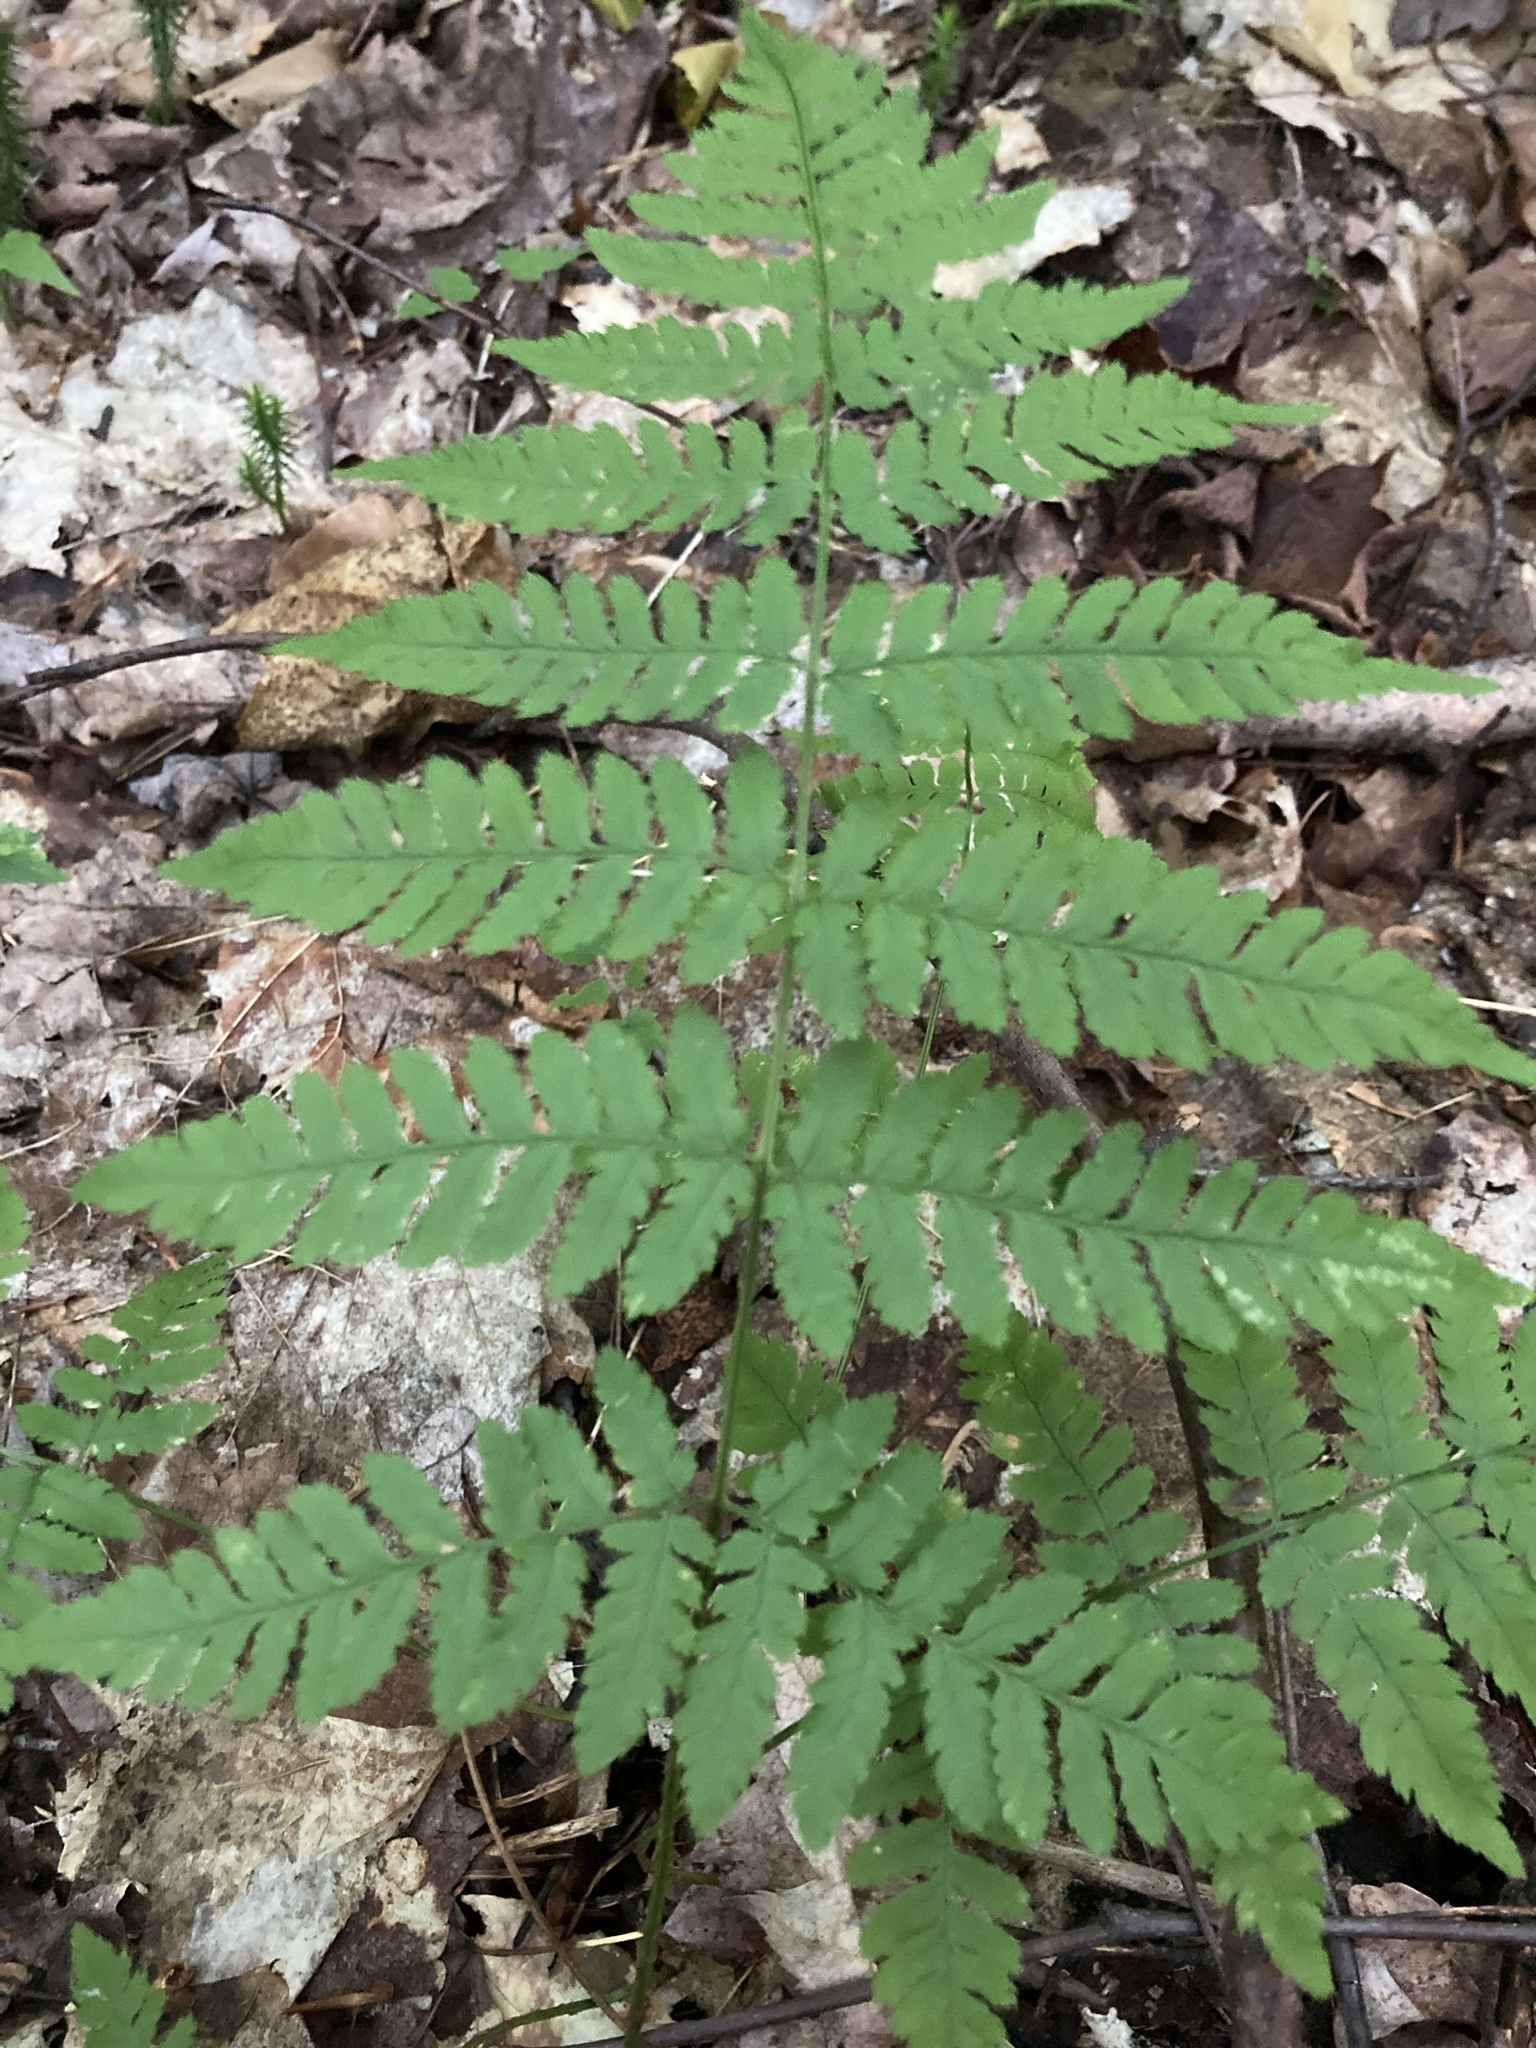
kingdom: Plantae
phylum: Tracheophyta
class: Polypodiopsida
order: Polypodiales
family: Dryopteridaceae
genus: Dryopteris
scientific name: Dryopteris carthusiana
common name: Narrow buckler-fern
